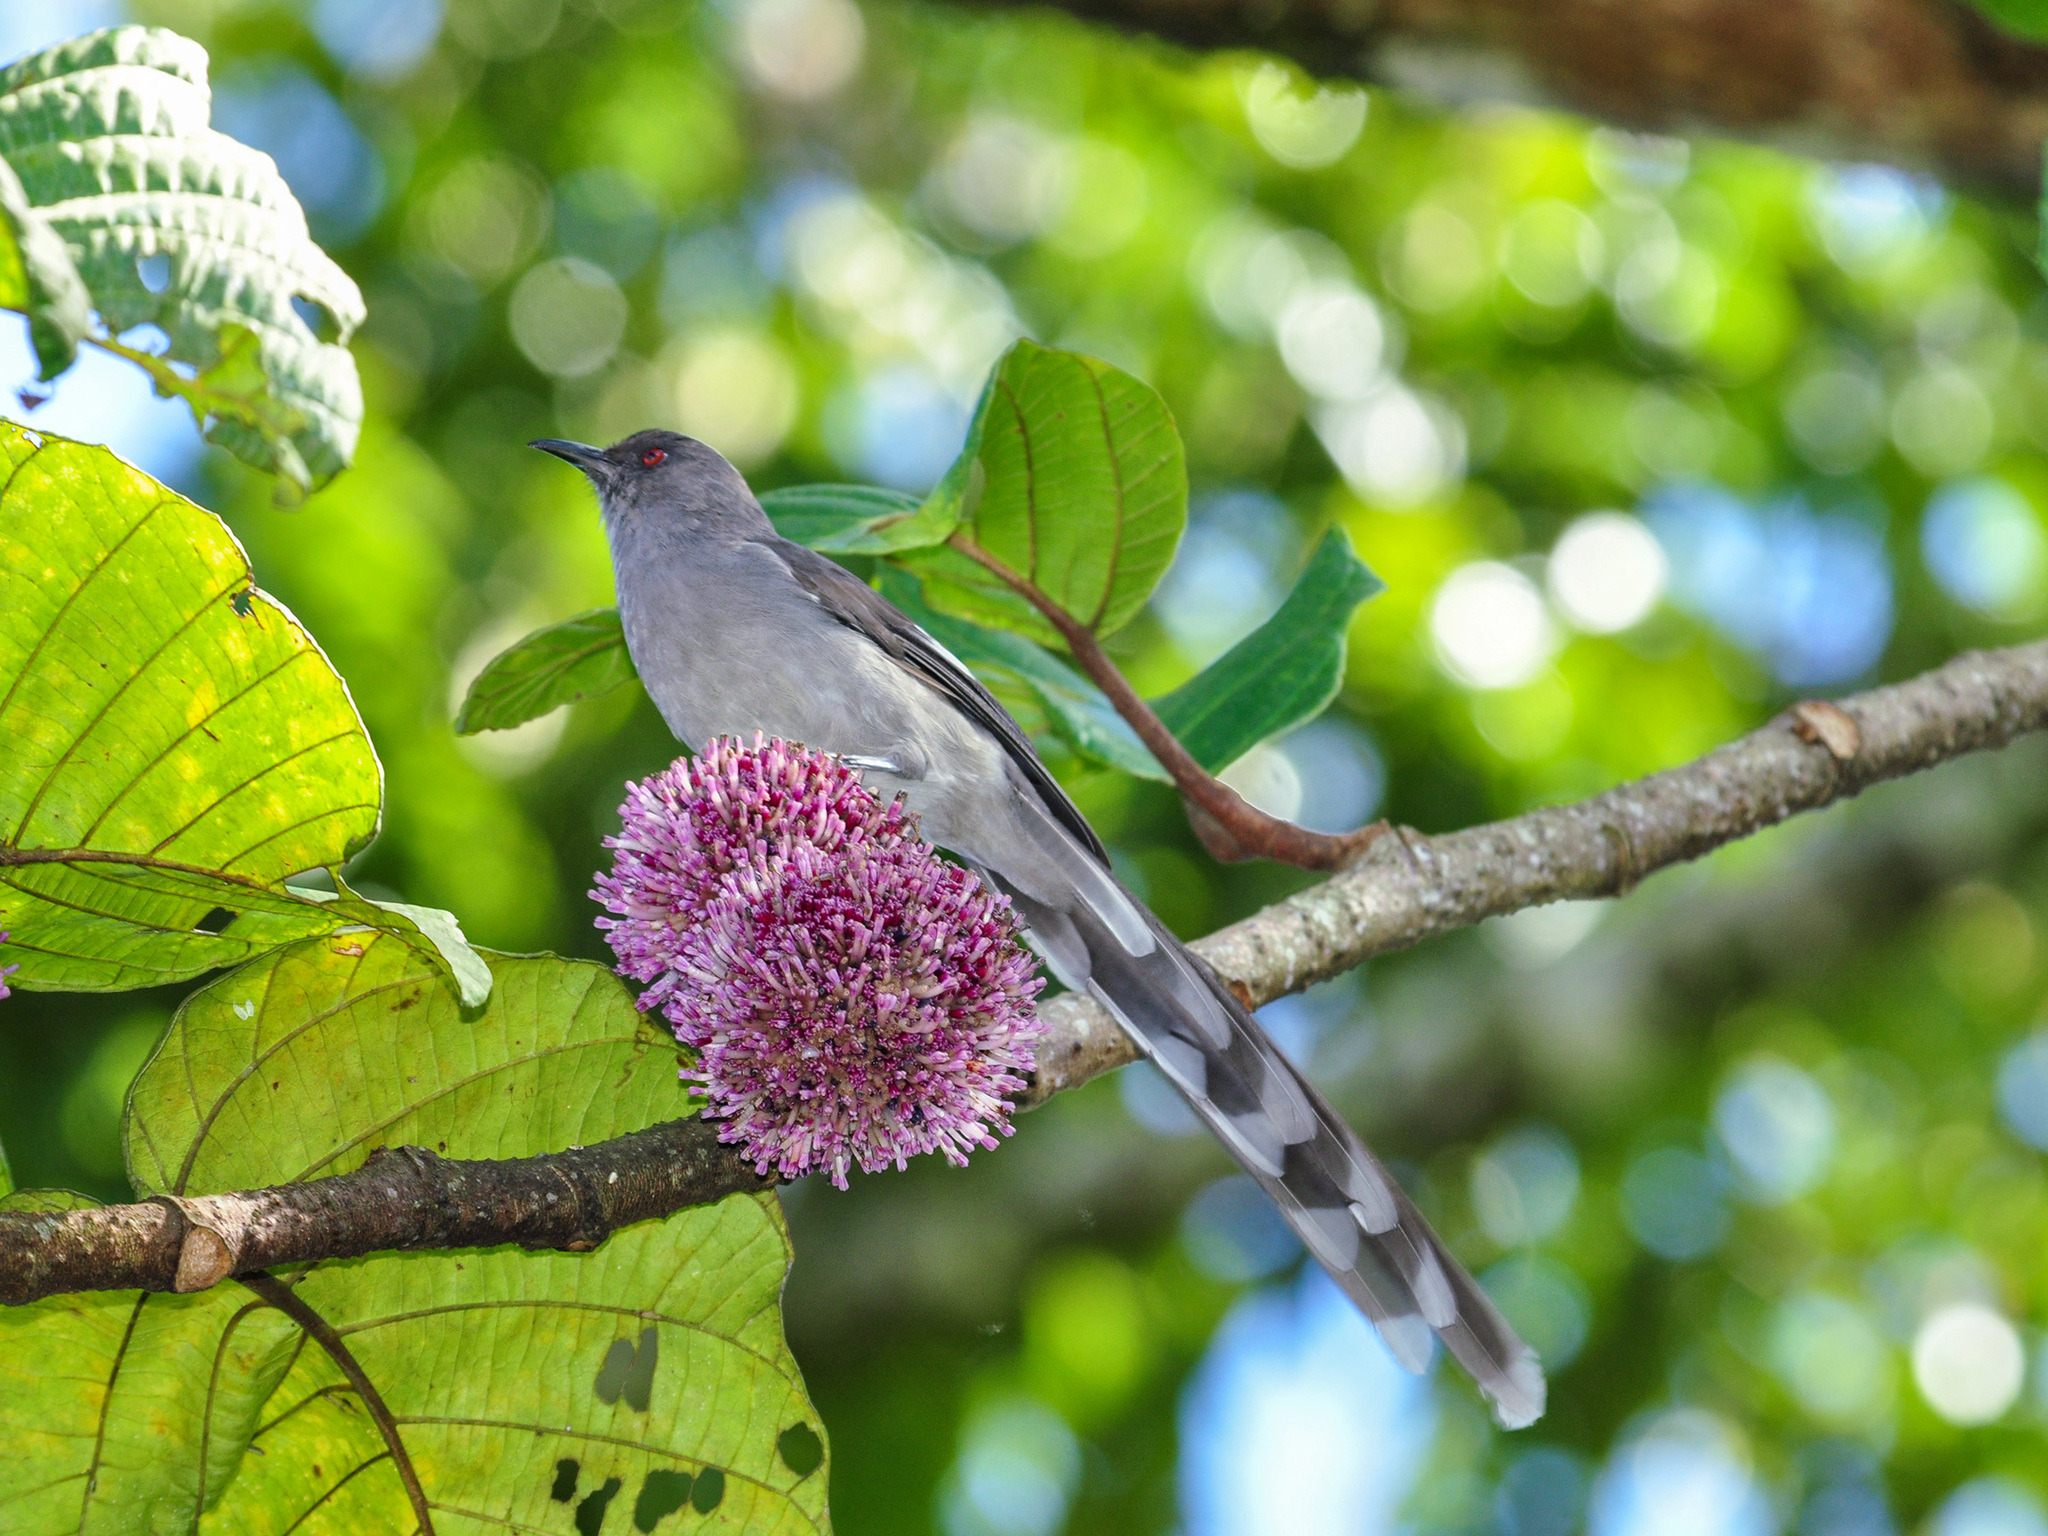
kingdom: Animalia
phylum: Chordata
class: Aves
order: Passeriformes
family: Leiothrichidae
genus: Heterophasia
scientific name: Heterophasia picaoides
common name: Long-tailed sibia
